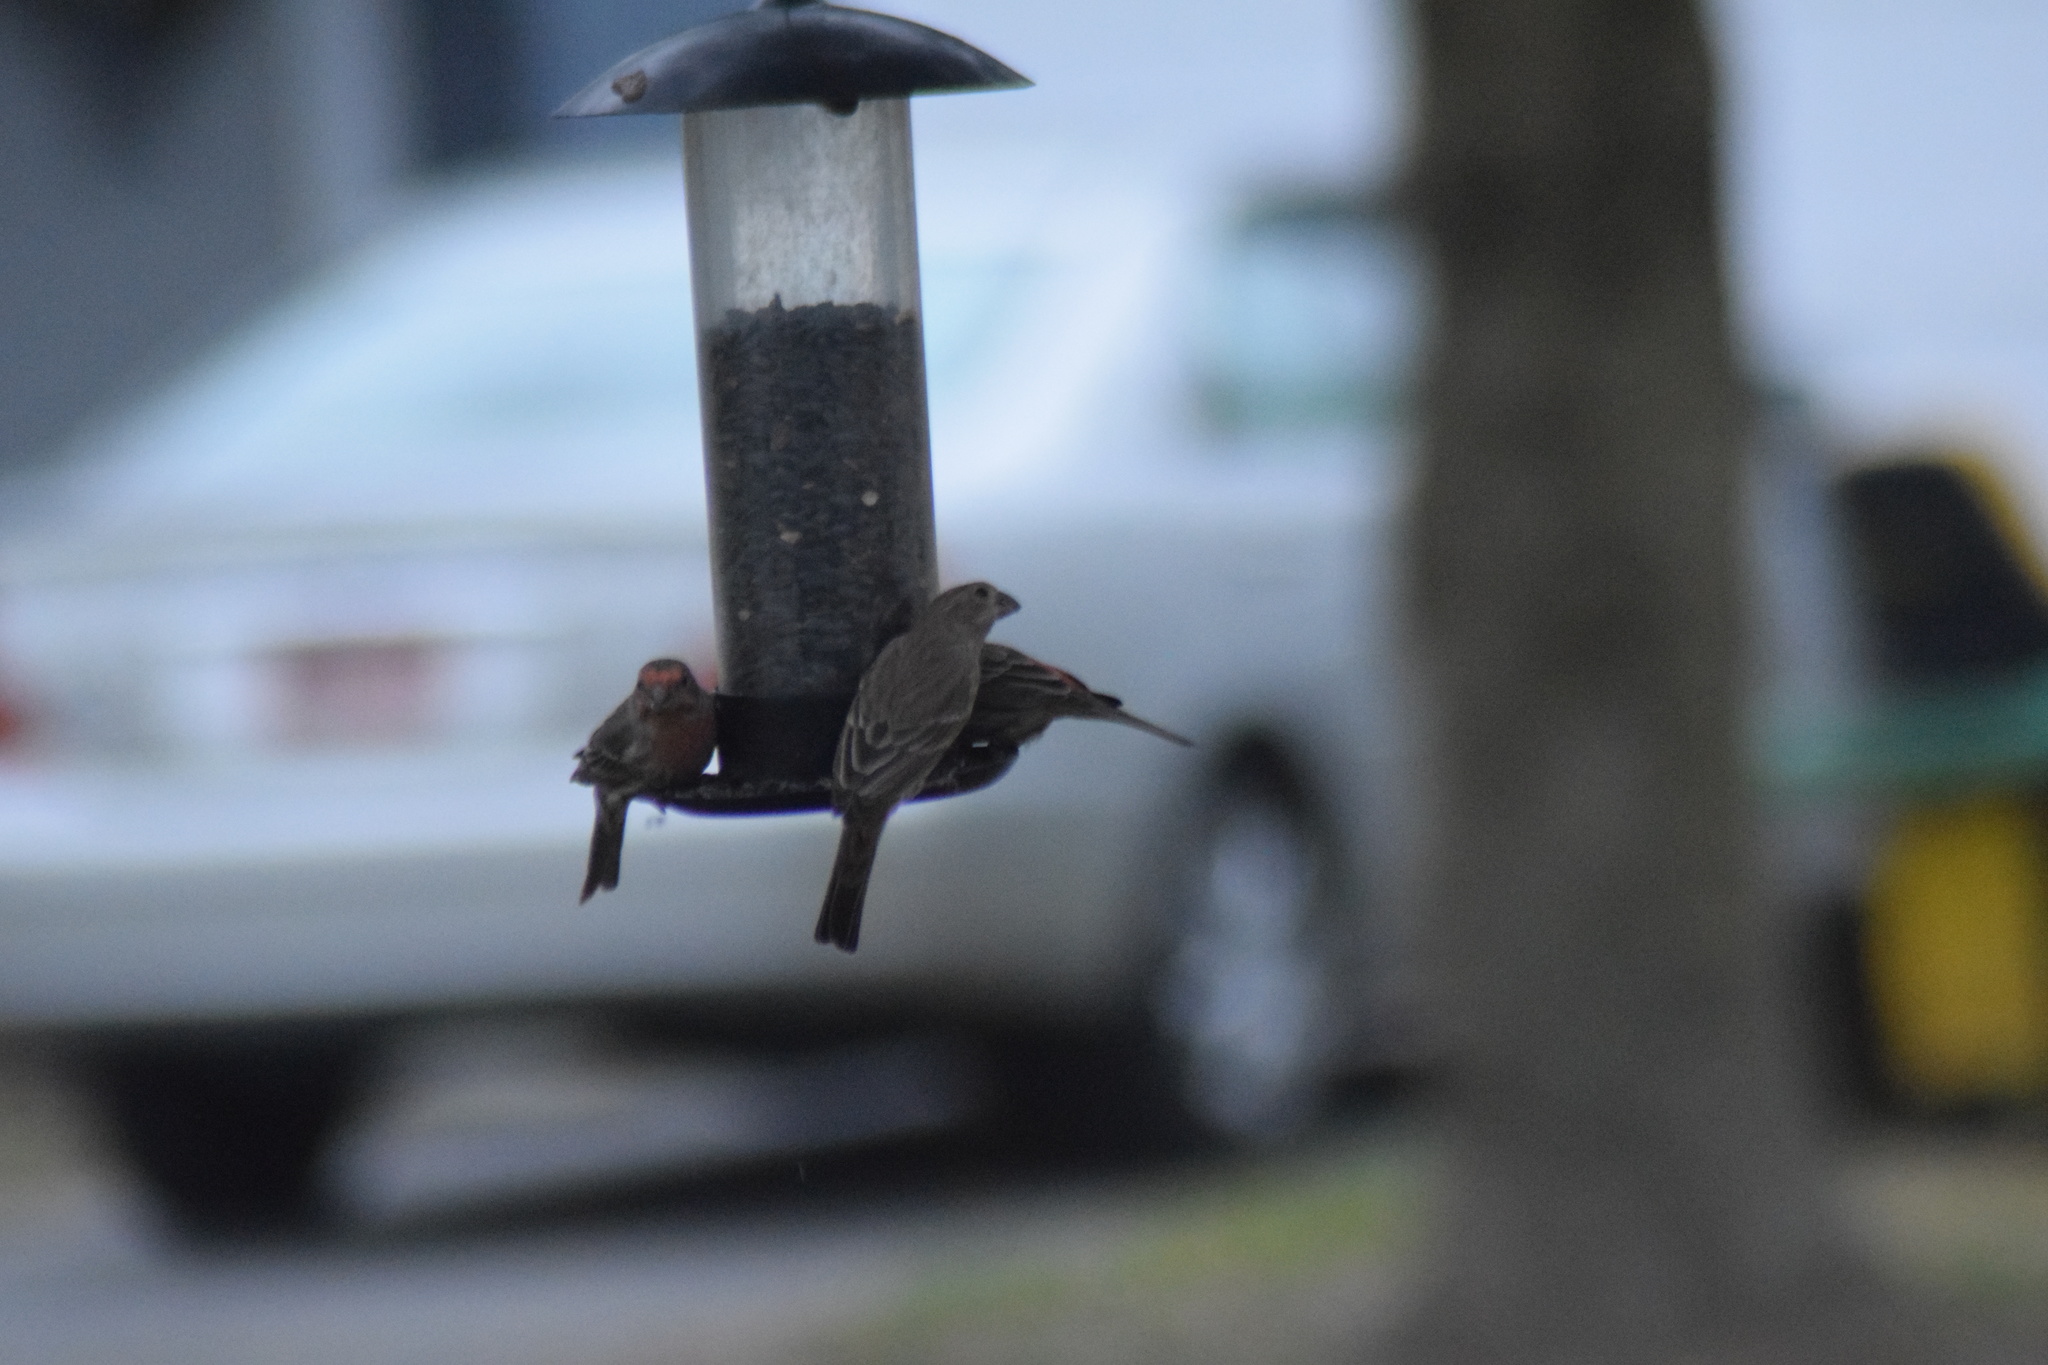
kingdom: Animalia
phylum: Chordata
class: Aves
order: Passeriformes
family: Fringillidae
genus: Haemorhous
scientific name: Haemorhous mexicanus
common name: House finch
